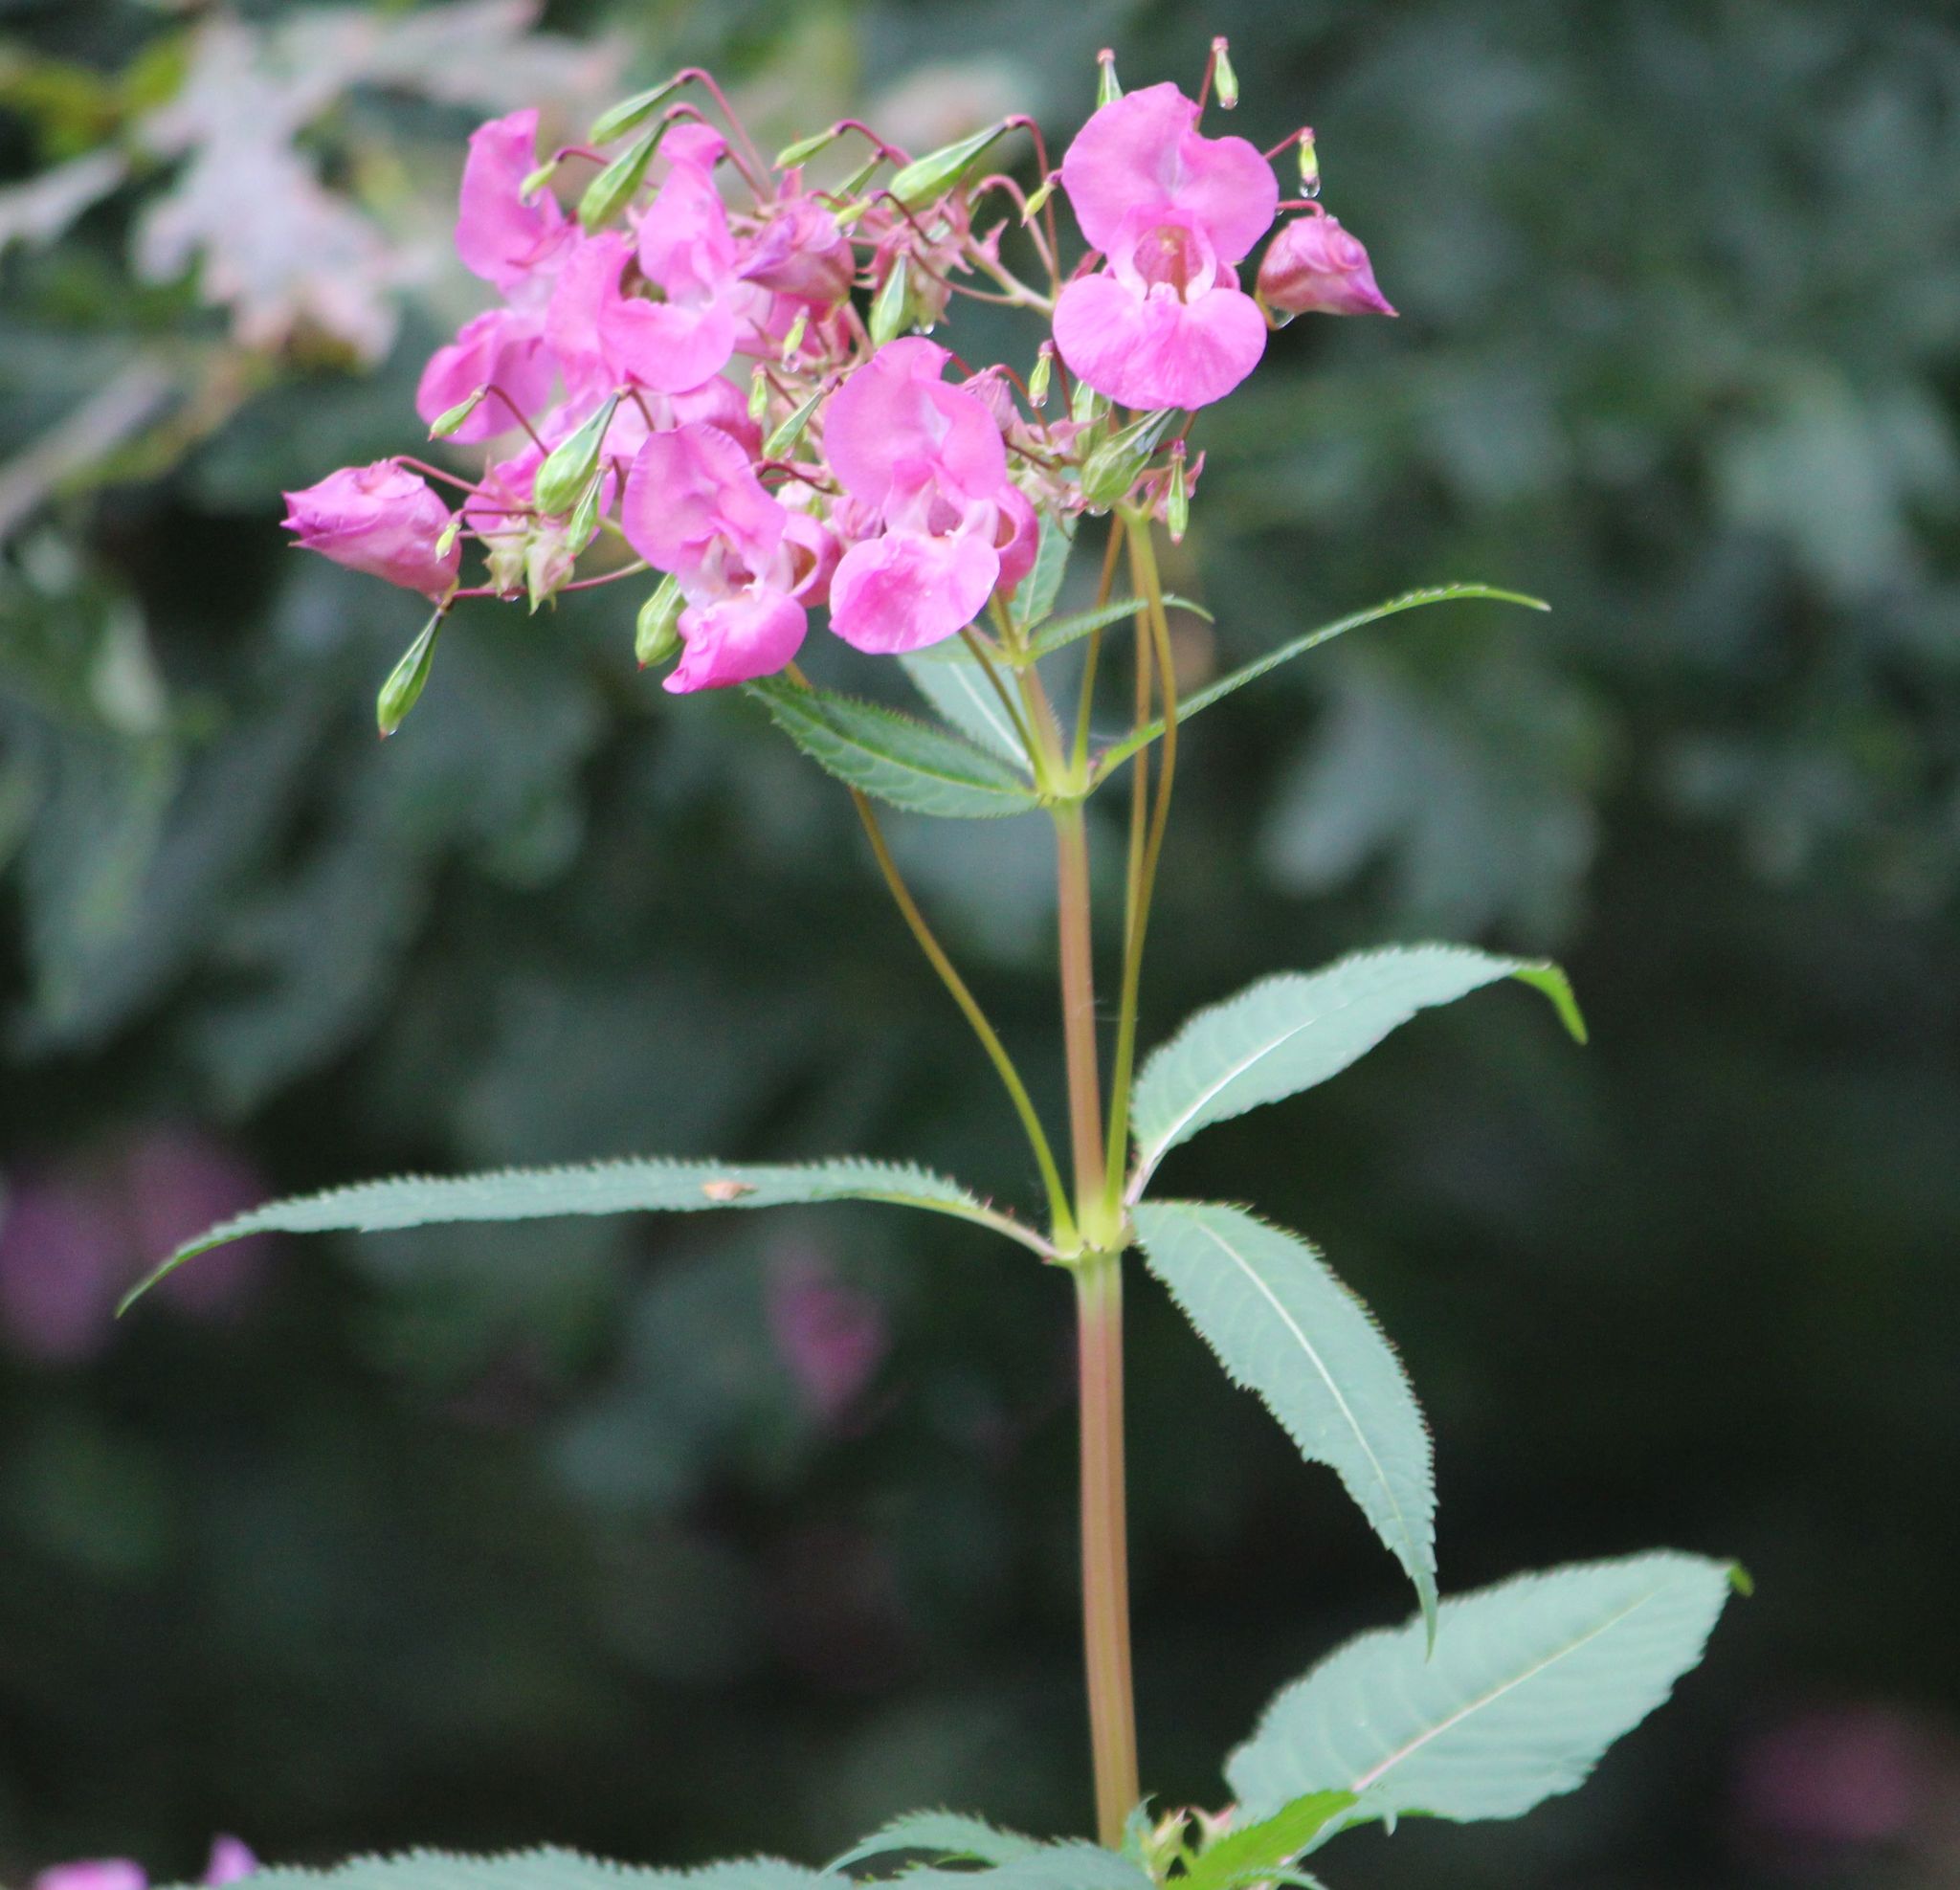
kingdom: Plantae
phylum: Tracheophyta
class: Magnoliopsida
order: Ericales
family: Balsaminaceae
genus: Impatiens
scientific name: Impatiens glandulifera
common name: Himalayan balsam
